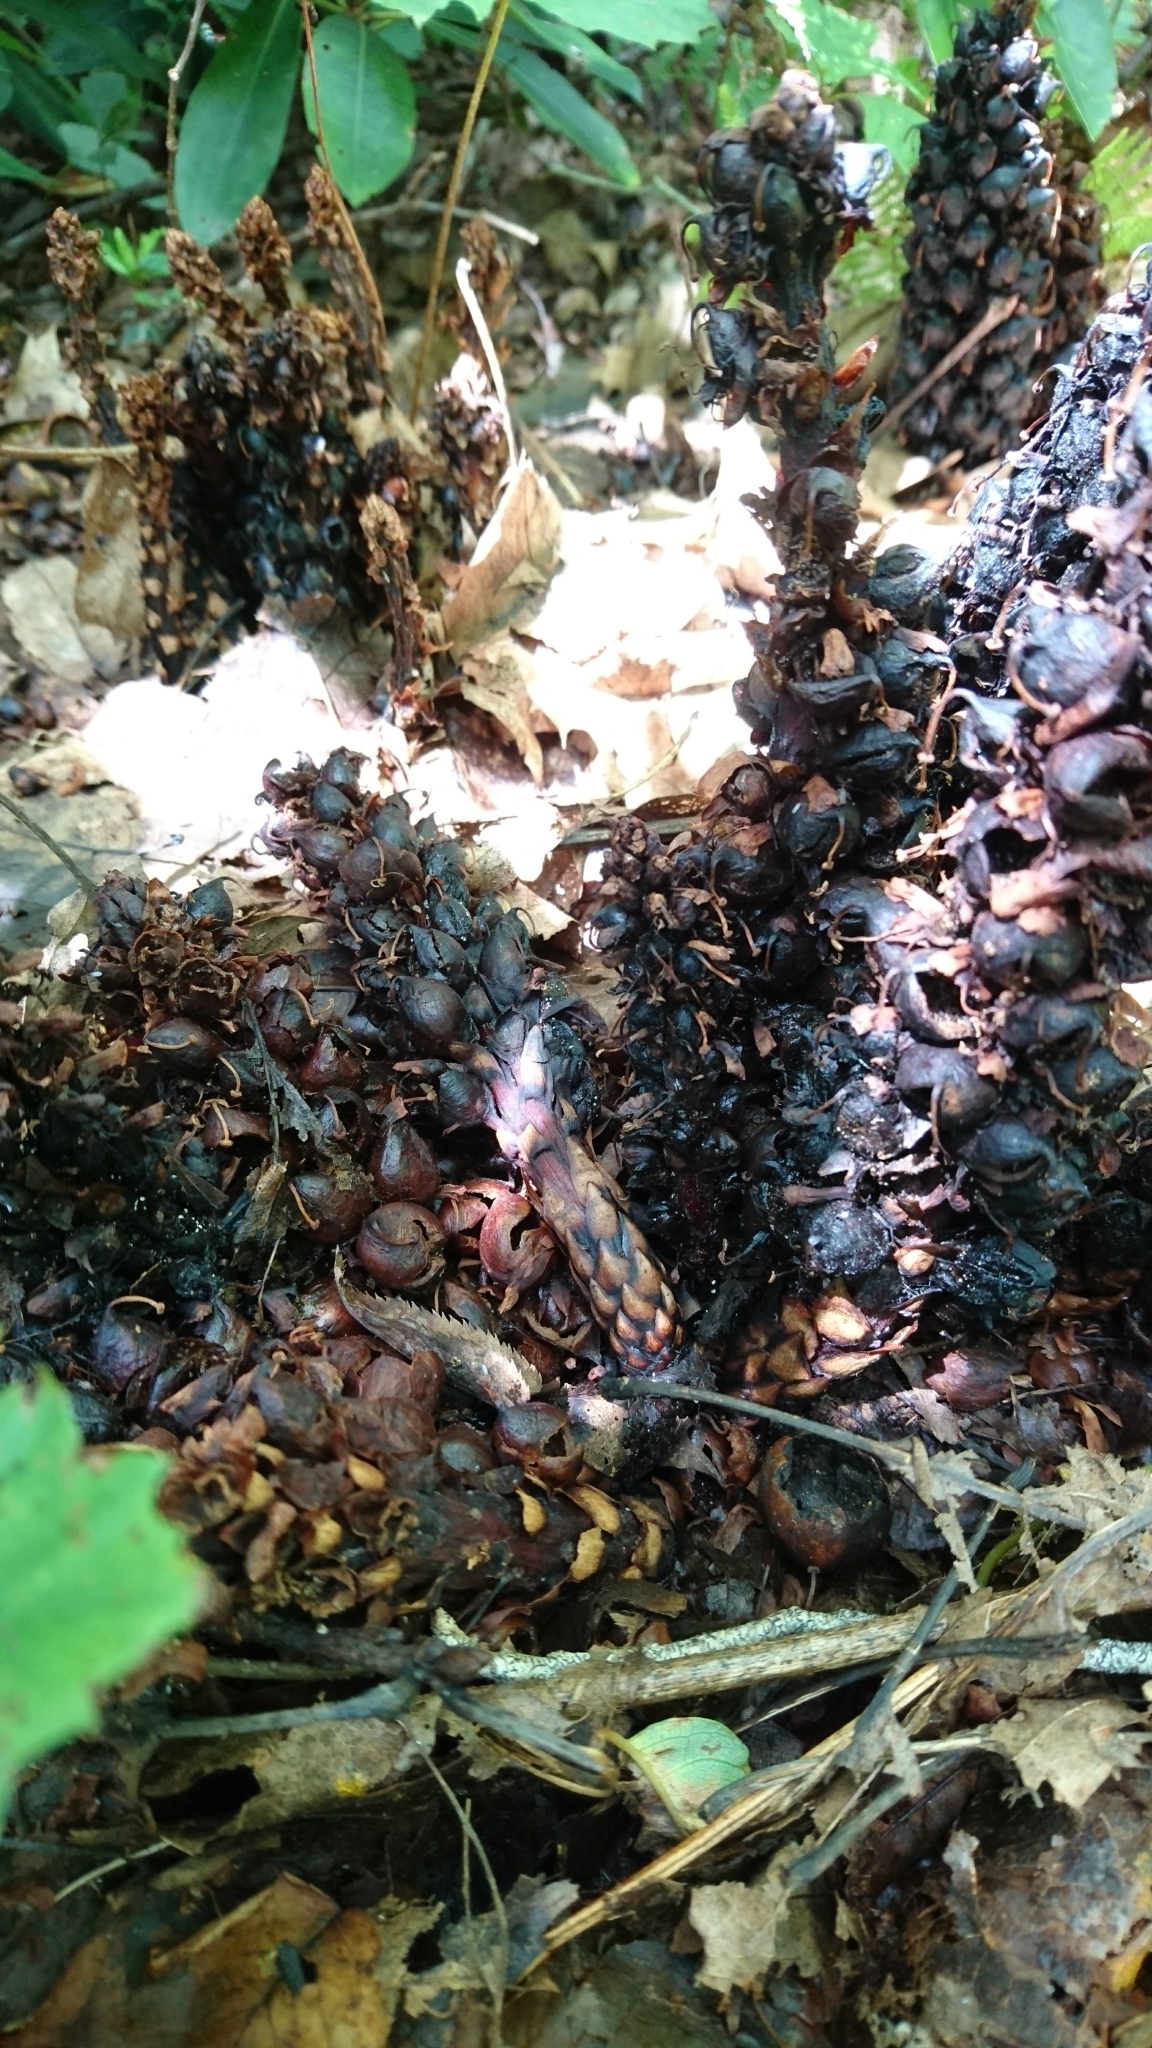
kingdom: Plantae
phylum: Tracheophyta
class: Magnoliopsida
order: Lamiales
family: Orobanchaceae
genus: Conopholis
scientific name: Conopholis americana
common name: American cancer-root
